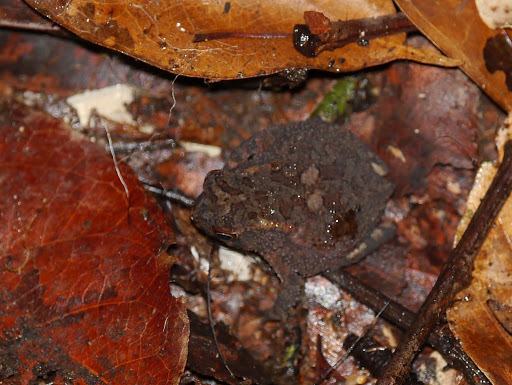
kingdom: Animalia
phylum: Chordata
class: Amphibia
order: Anura
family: Bufonidae
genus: Sclerophrys
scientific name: Sclerophrys gracilipes
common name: French congo toad
